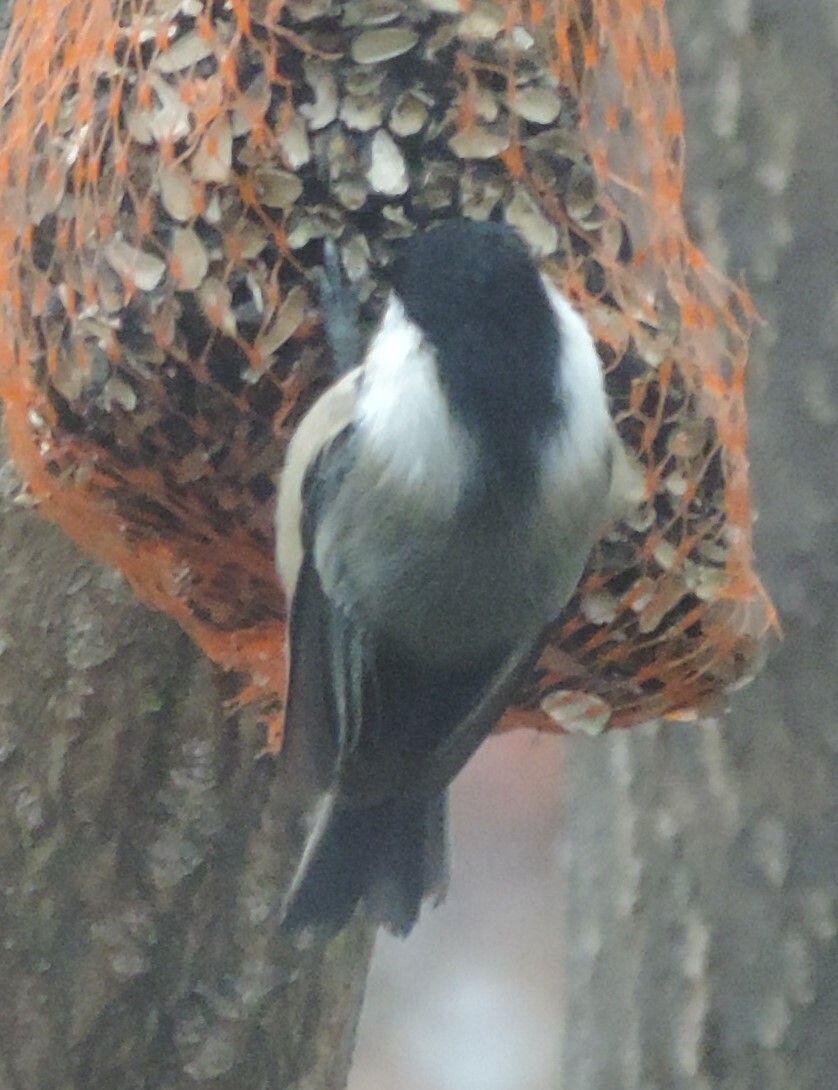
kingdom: Animalia
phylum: Chordata
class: Aves
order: Passeriformes
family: Paridae
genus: Poecile
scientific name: Poecile atricapillus
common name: Black-capped chickadee
